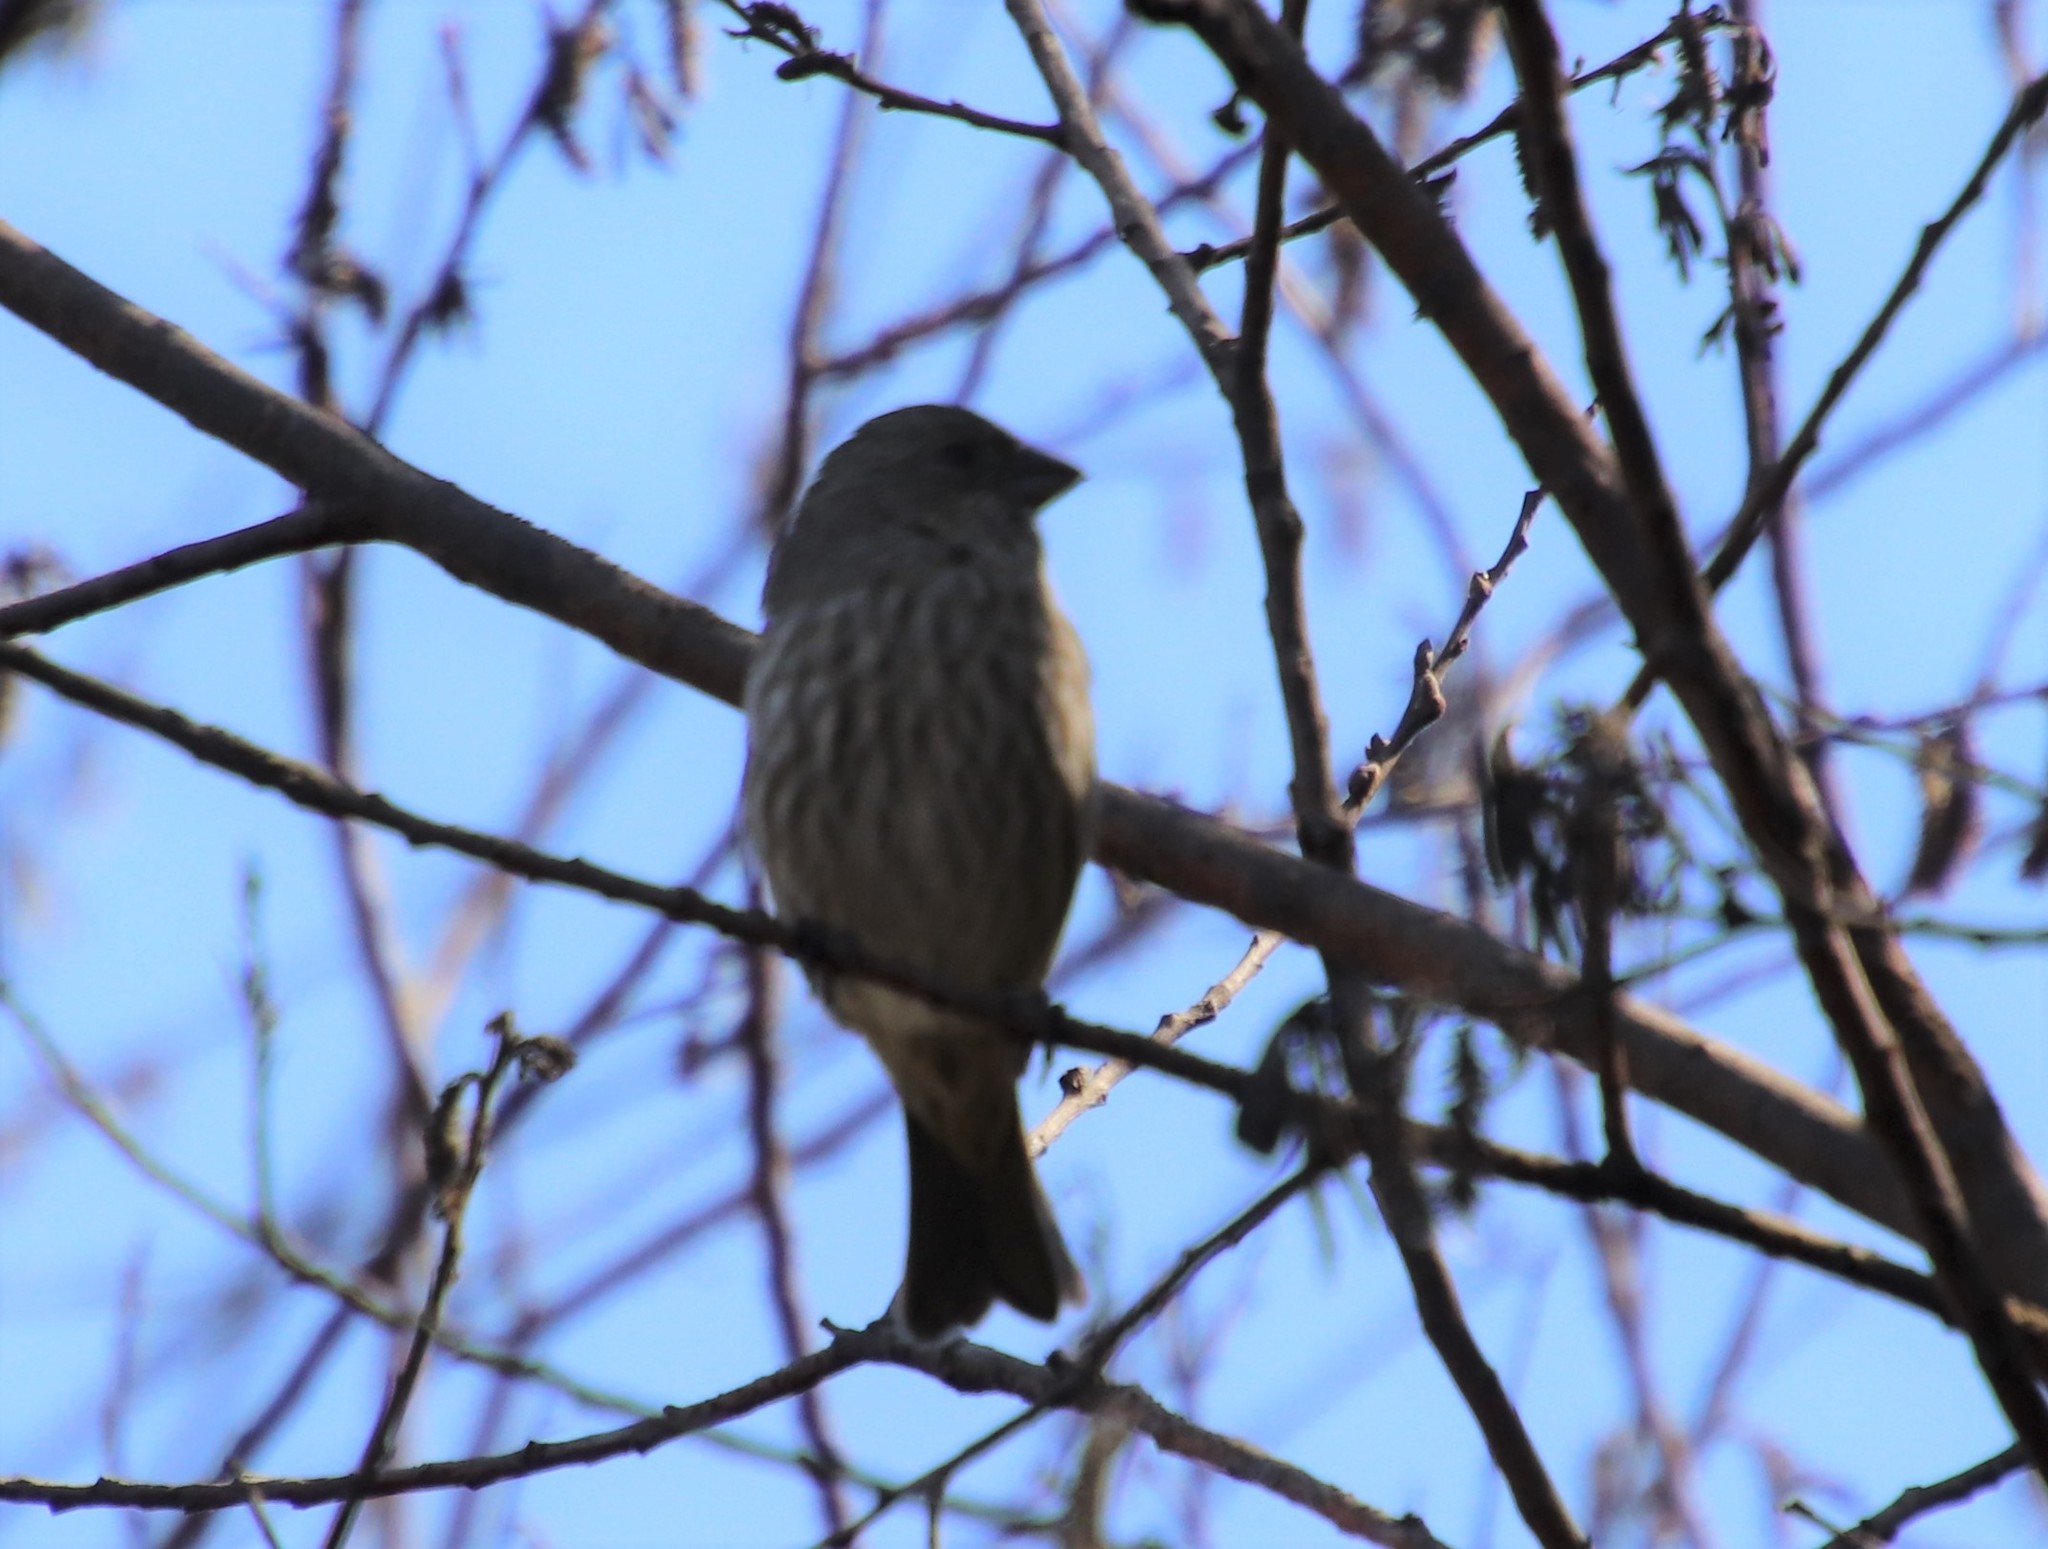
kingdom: Animalia
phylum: Chordata
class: Aves
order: Passeriformes
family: Fringillidae
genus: Haemorhous
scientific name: Haemorhous mexicanus
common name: House finch
